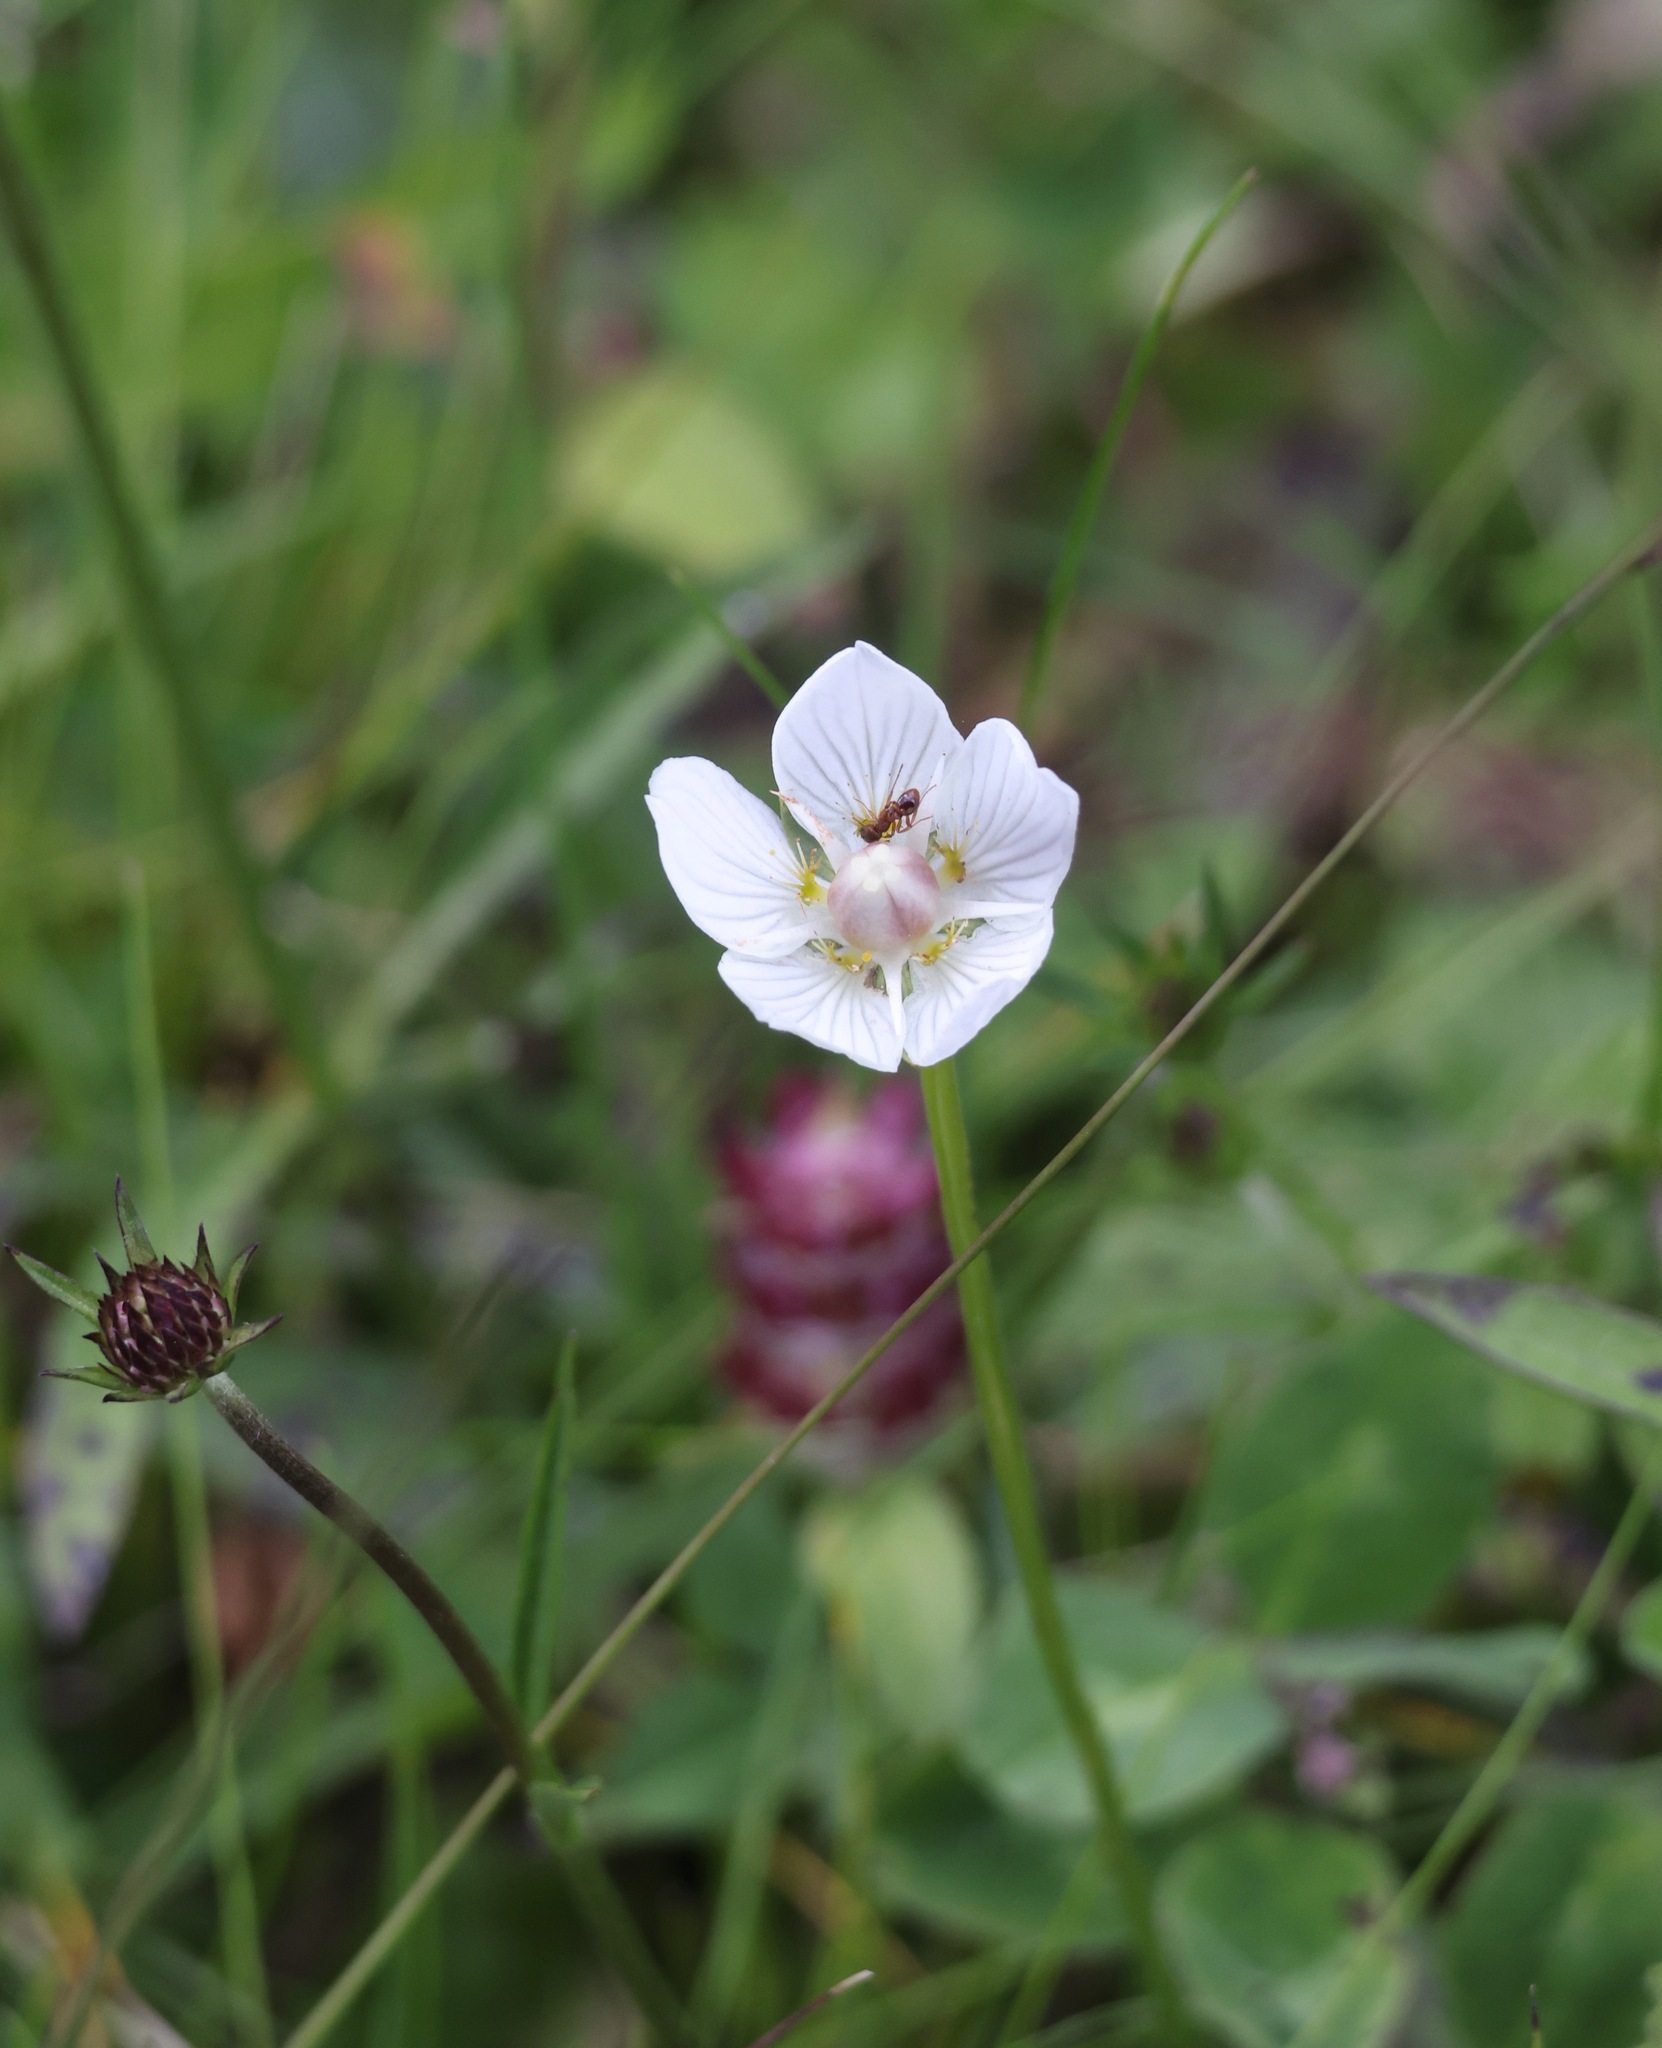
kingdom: Plantae
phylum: Tracheophyta
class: Magnoliopsida
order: Celastrales
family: Parnassiaceae
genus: Parnassia
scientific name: Parnassia palustris
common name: Grass-of-parnassus
